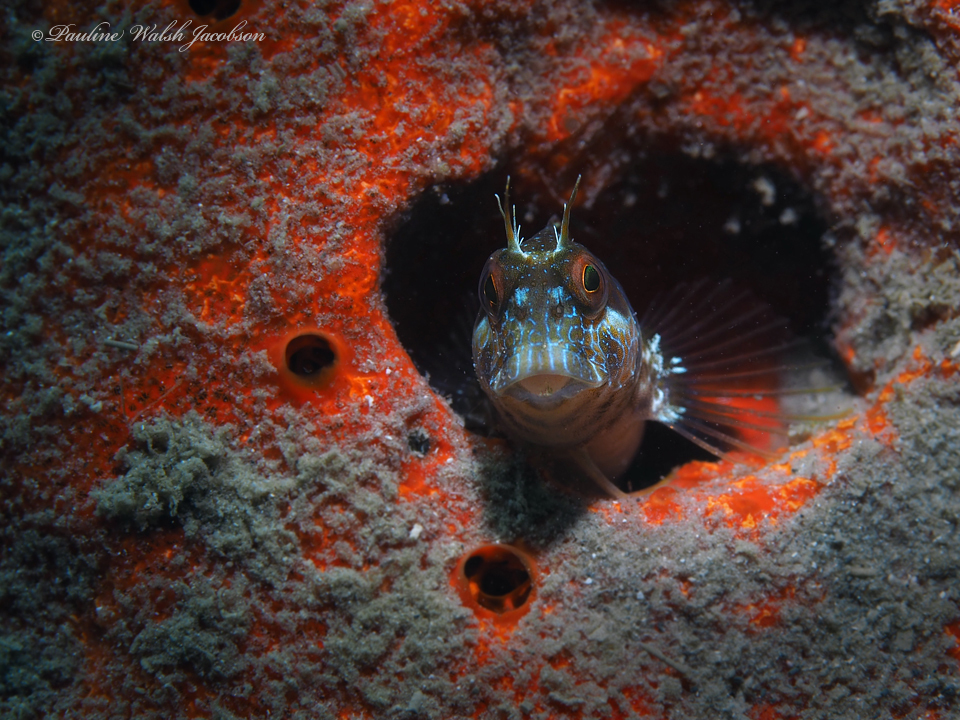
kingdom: Animalia
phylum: Chordata
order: Perciformes
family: Blenniidae
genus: Parablennius
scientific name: Parablennius marmoreus
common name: Seaweed blenny
